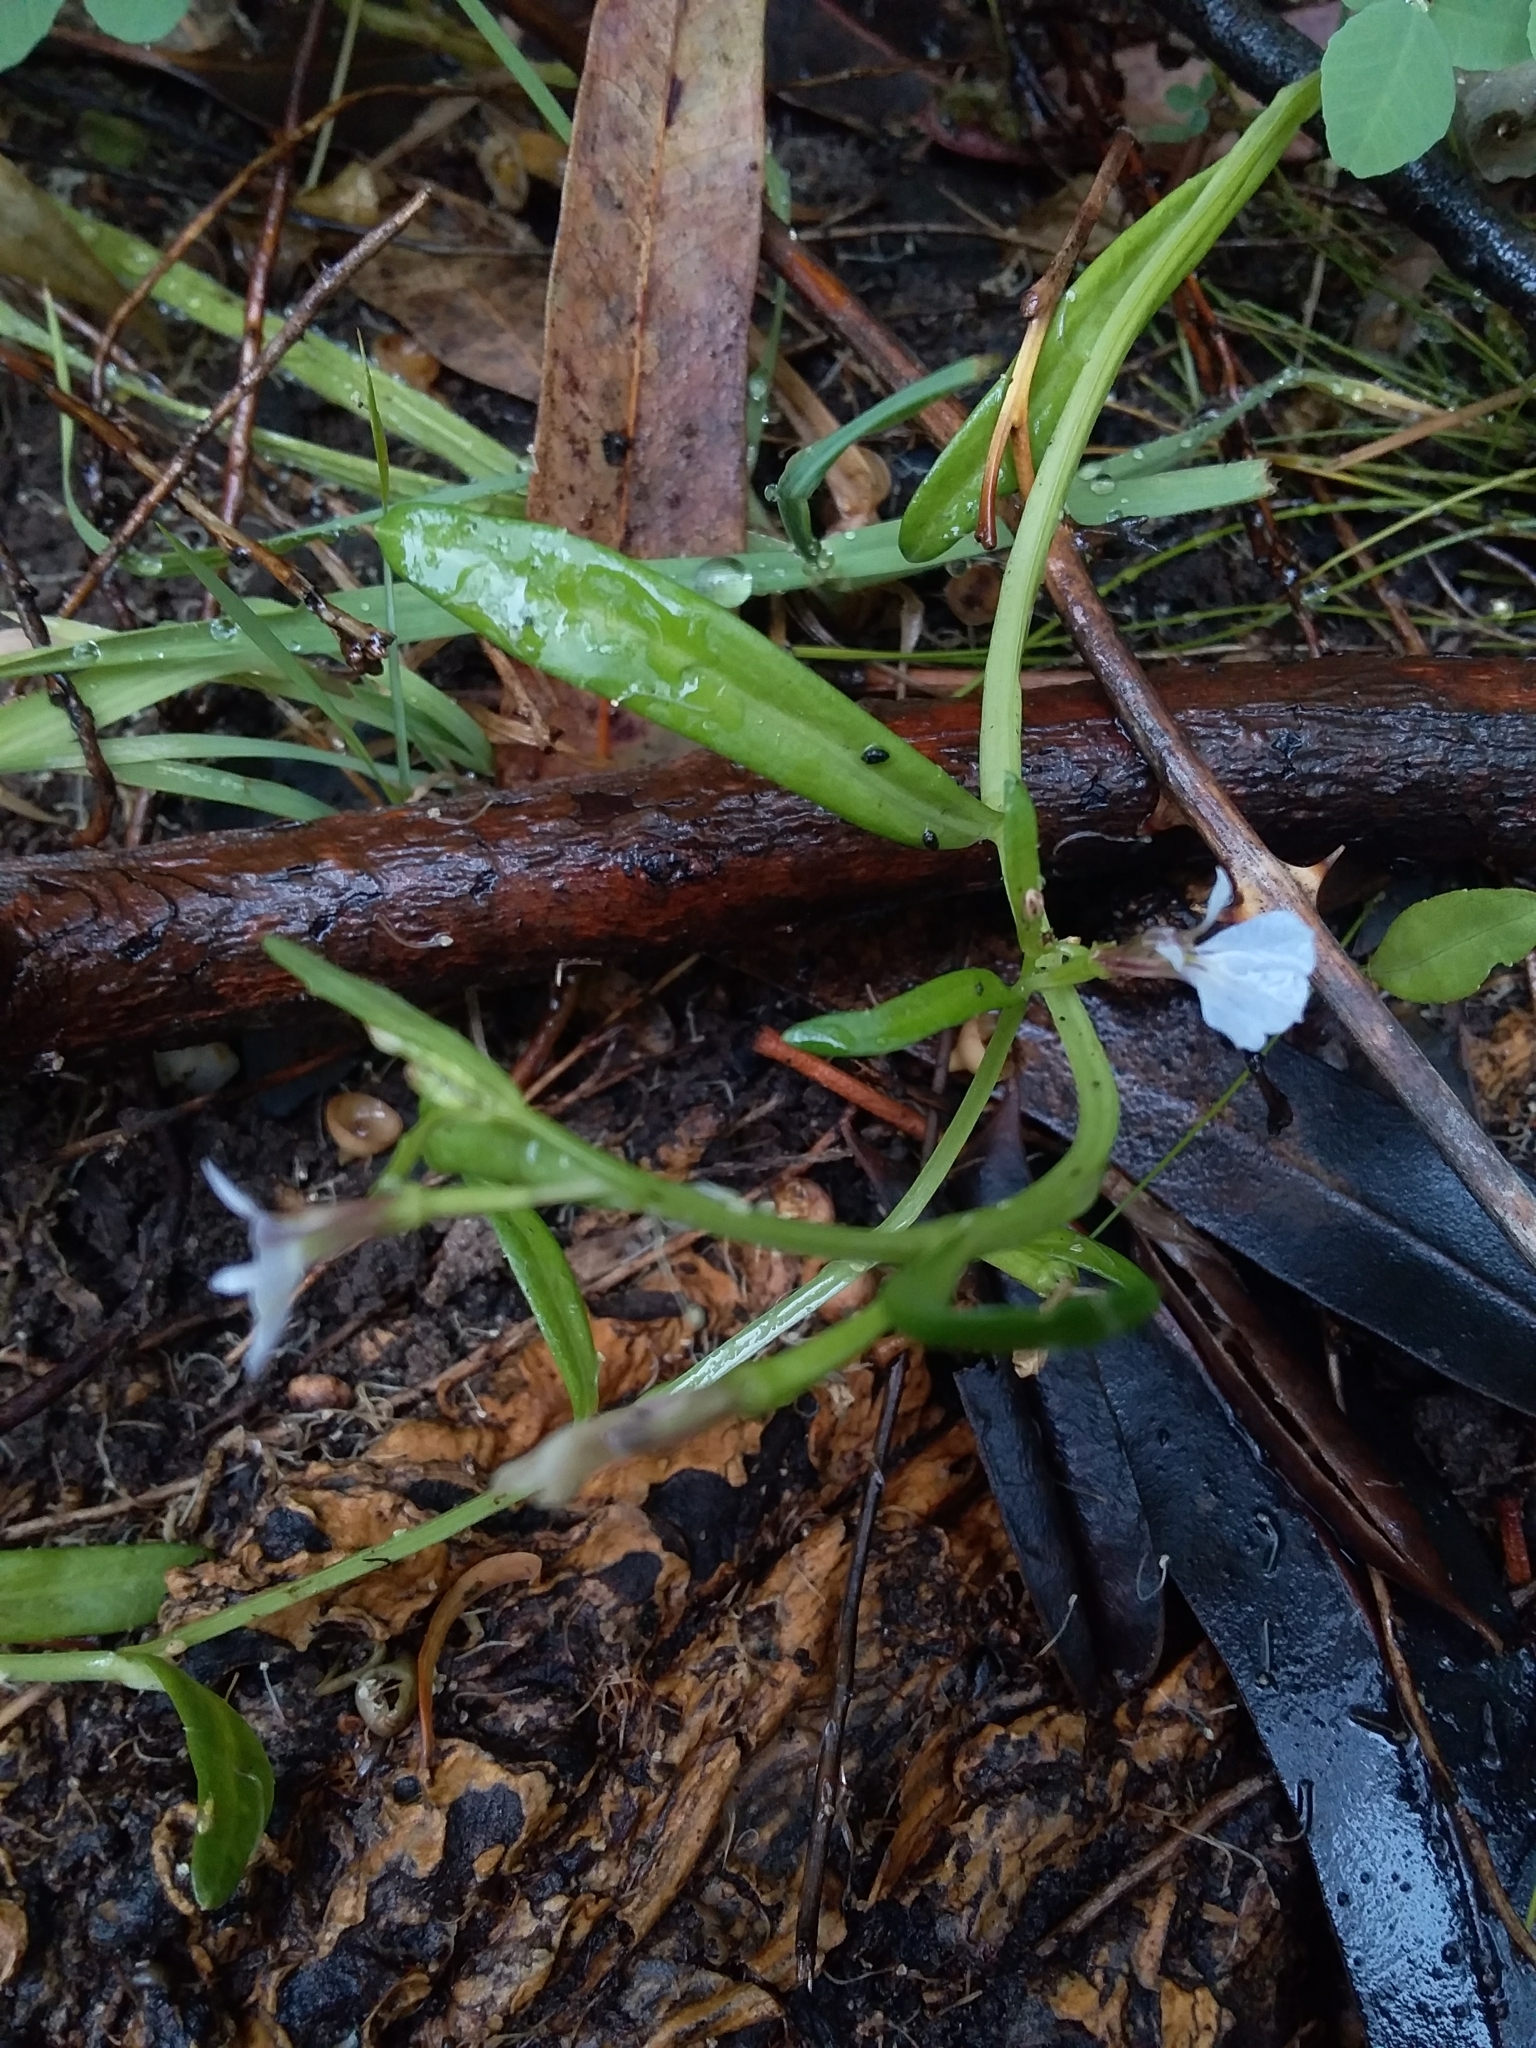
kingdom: Plantae
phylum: Tracheophyta
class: Magnoliopsida
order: Asterales
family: Campanulaceae
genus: Lobelia
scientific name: Lobelia anceps
